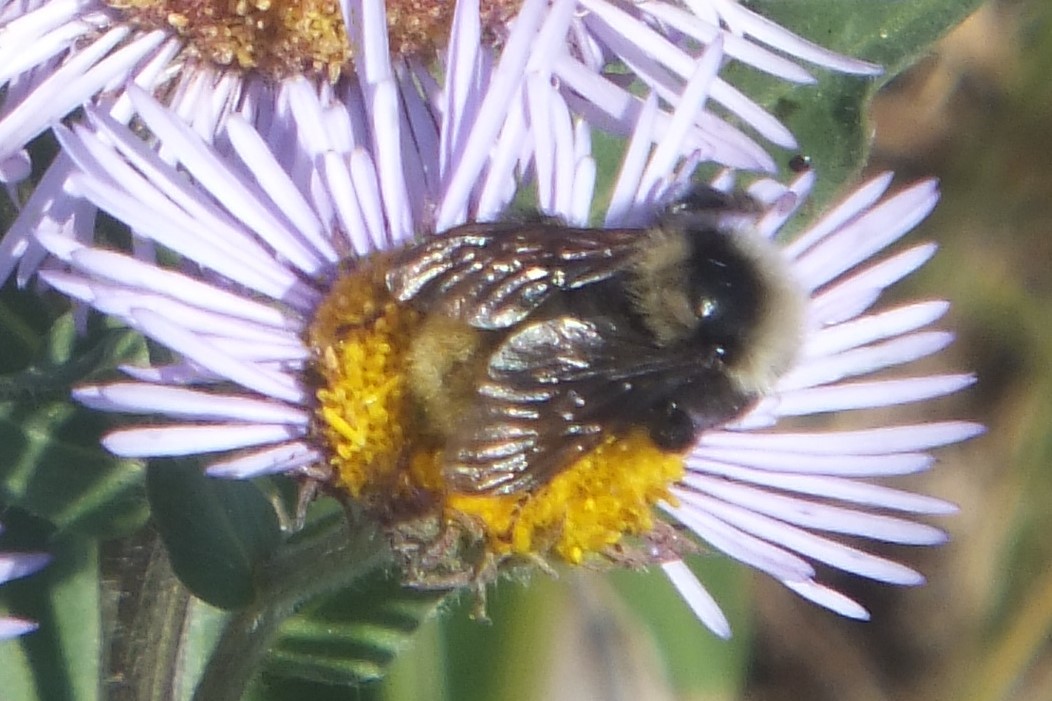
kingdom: Animalia
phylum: Arthropoda
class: Insecta
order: Hymenoptera
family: Apidae
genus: Bombus
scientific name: Bombus appositus
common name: White-shouldered bumble bee
